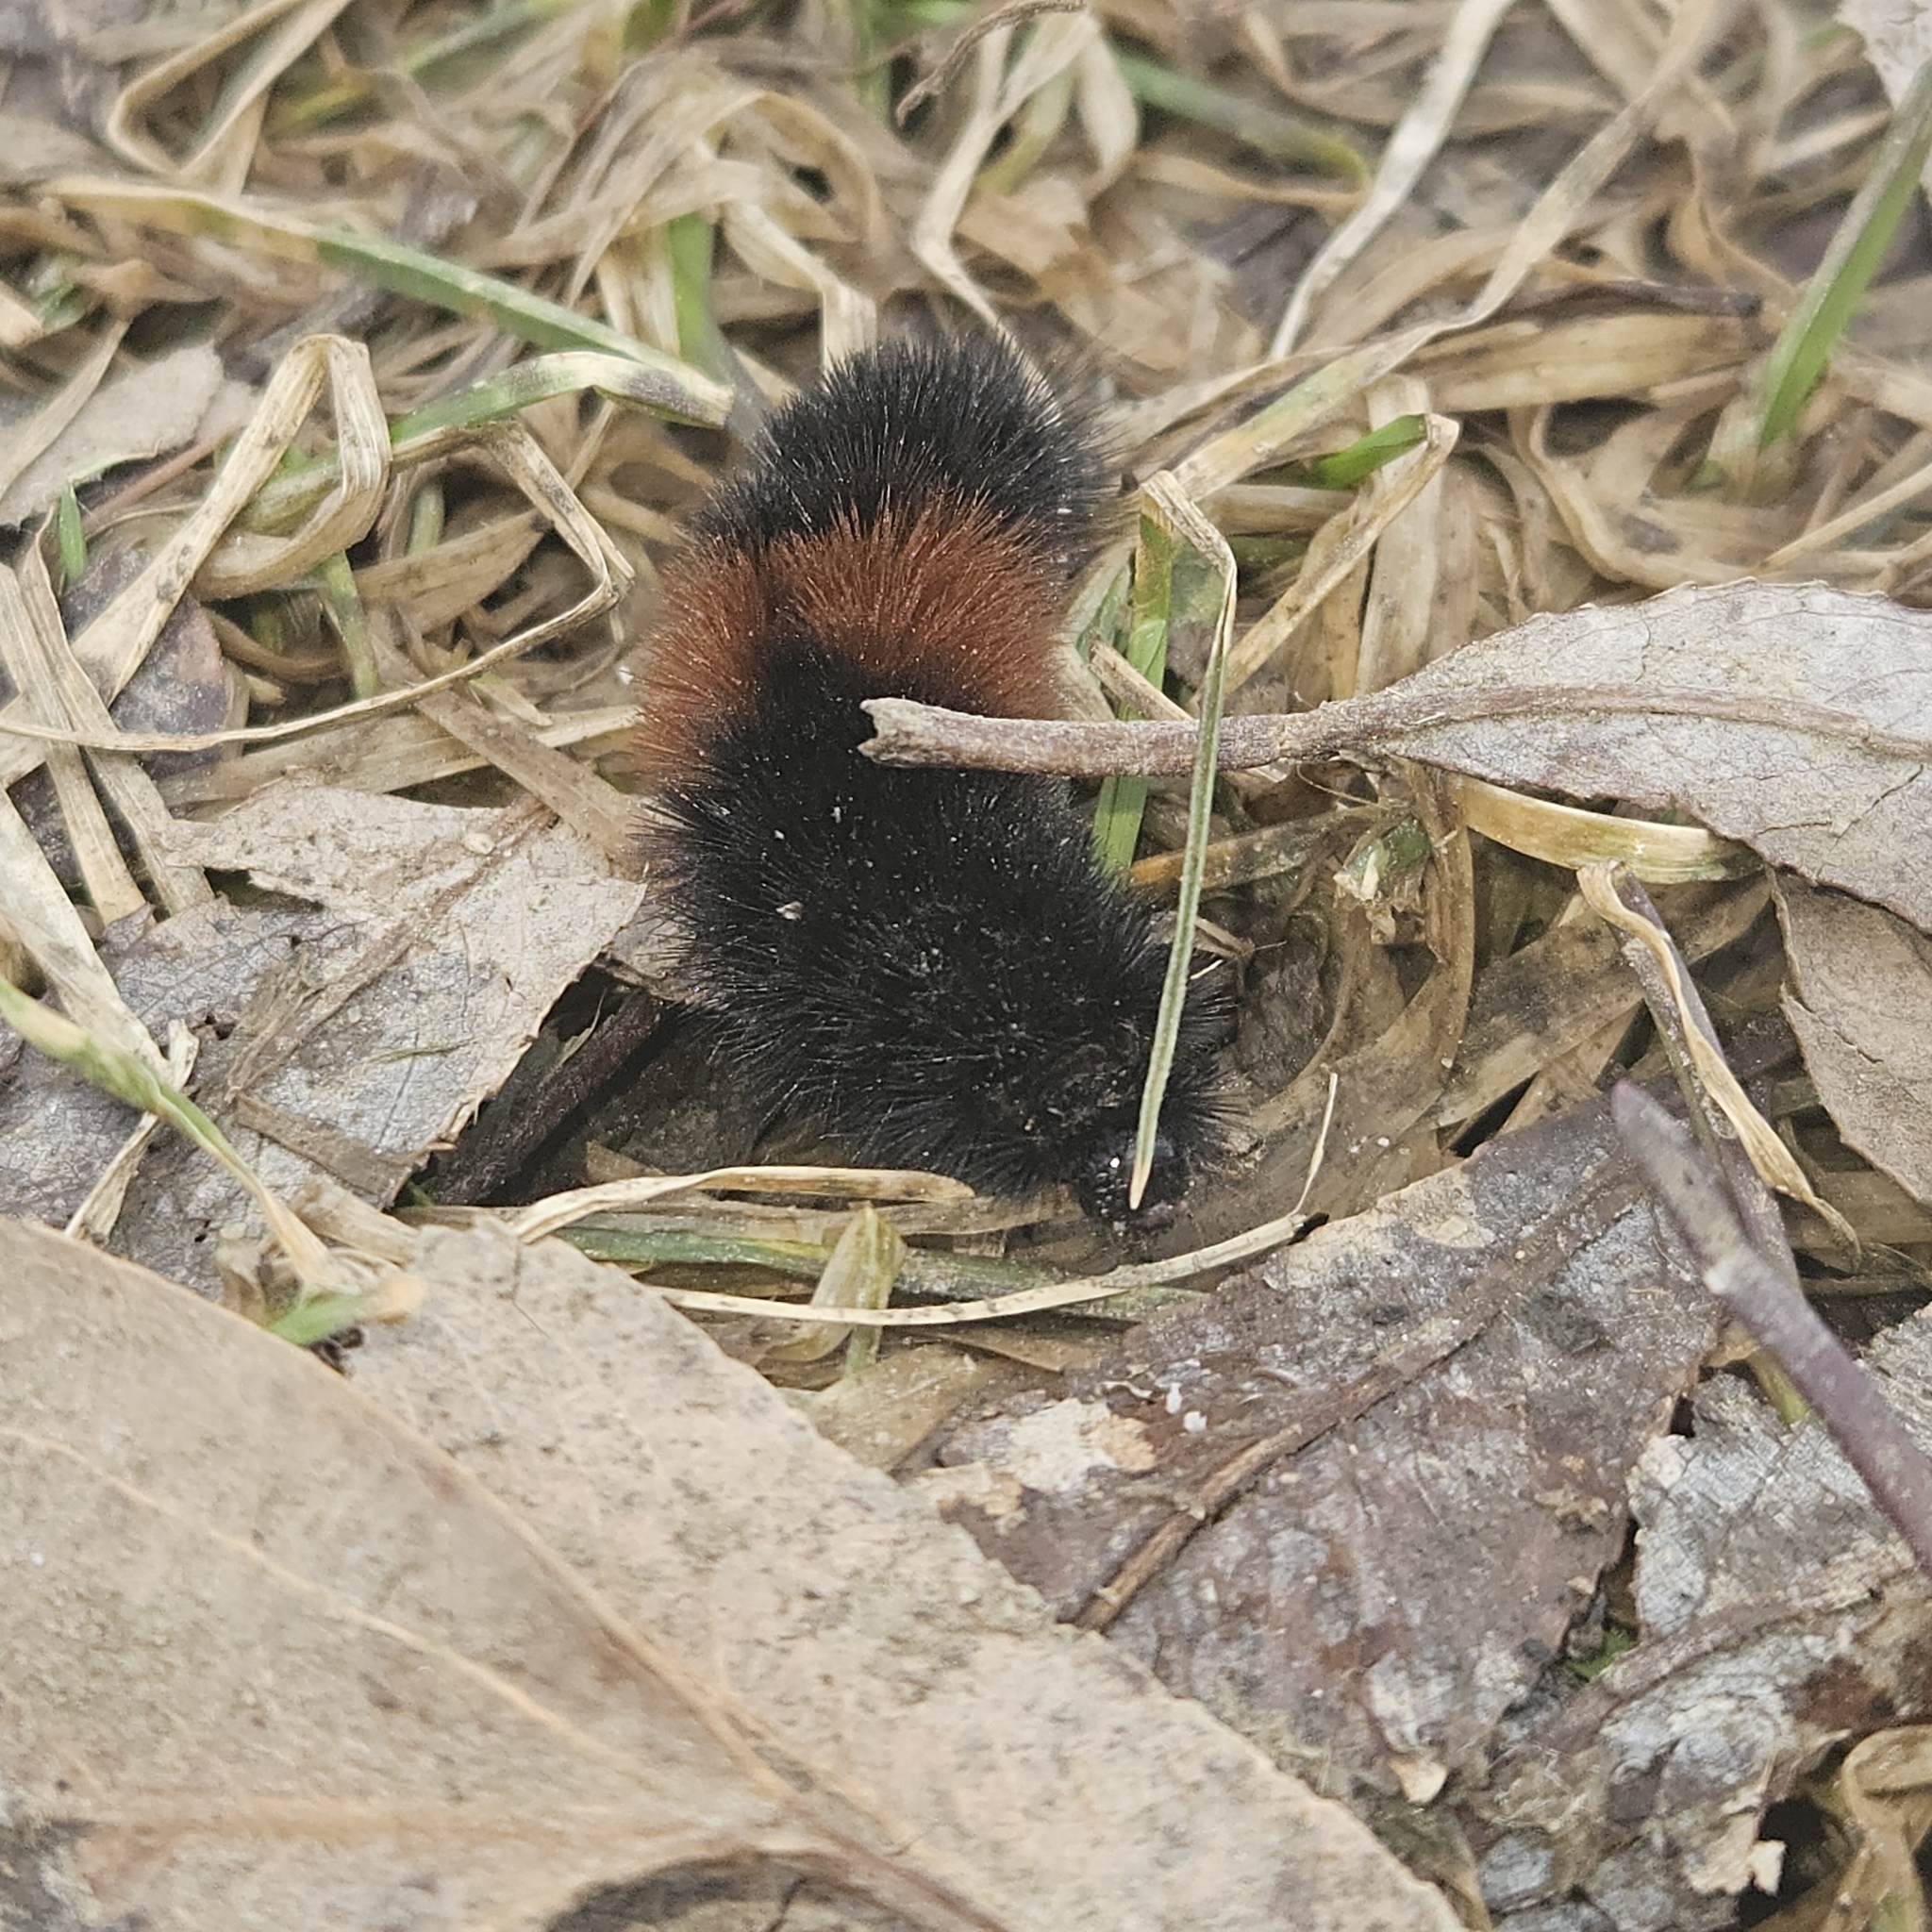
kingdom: Animalia
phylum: Arthropoda
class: Insecta
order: Lepidoptera
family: Erebidae
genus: Pyrrharctia
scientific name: Pyrrharctia isabella
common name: Isabella tiger moth
